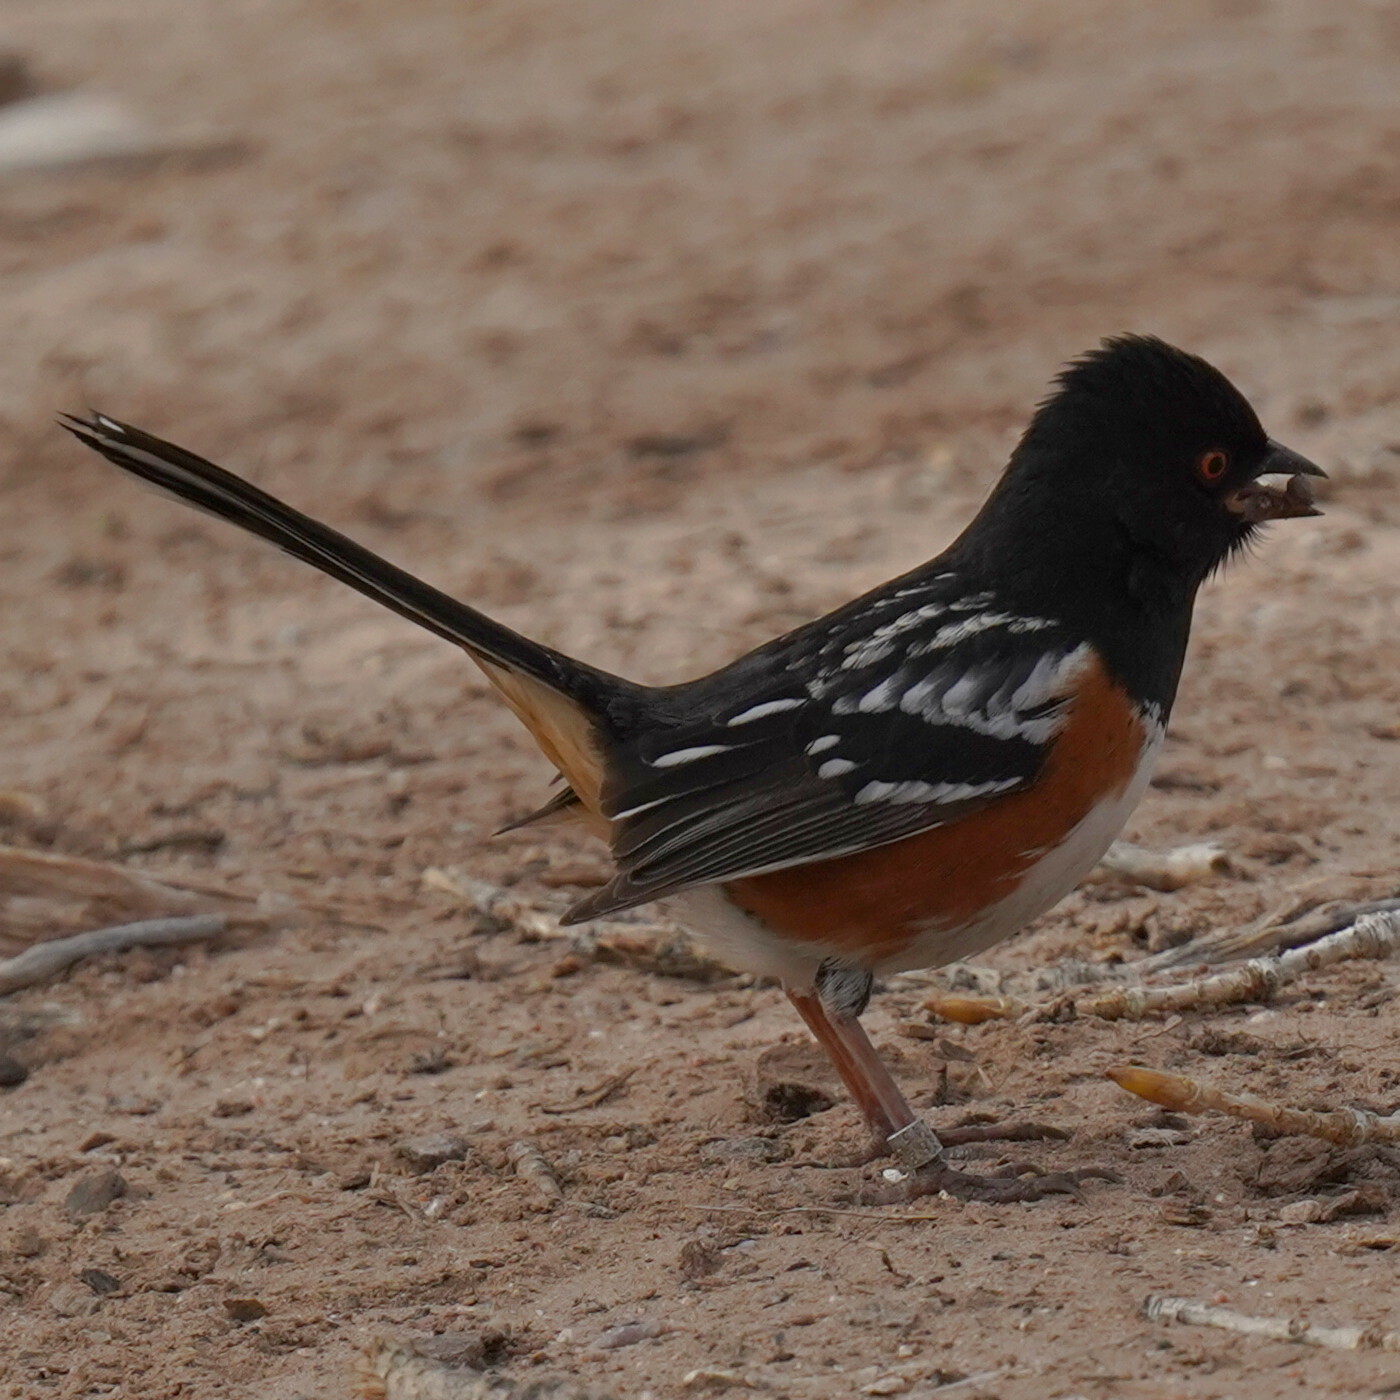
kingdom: Animalia
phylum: Chordata
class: Aves
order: Passeriformes
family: Passerellidae
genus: Pipilo
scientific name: Pipilo maculatus
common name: Spotted towhee
